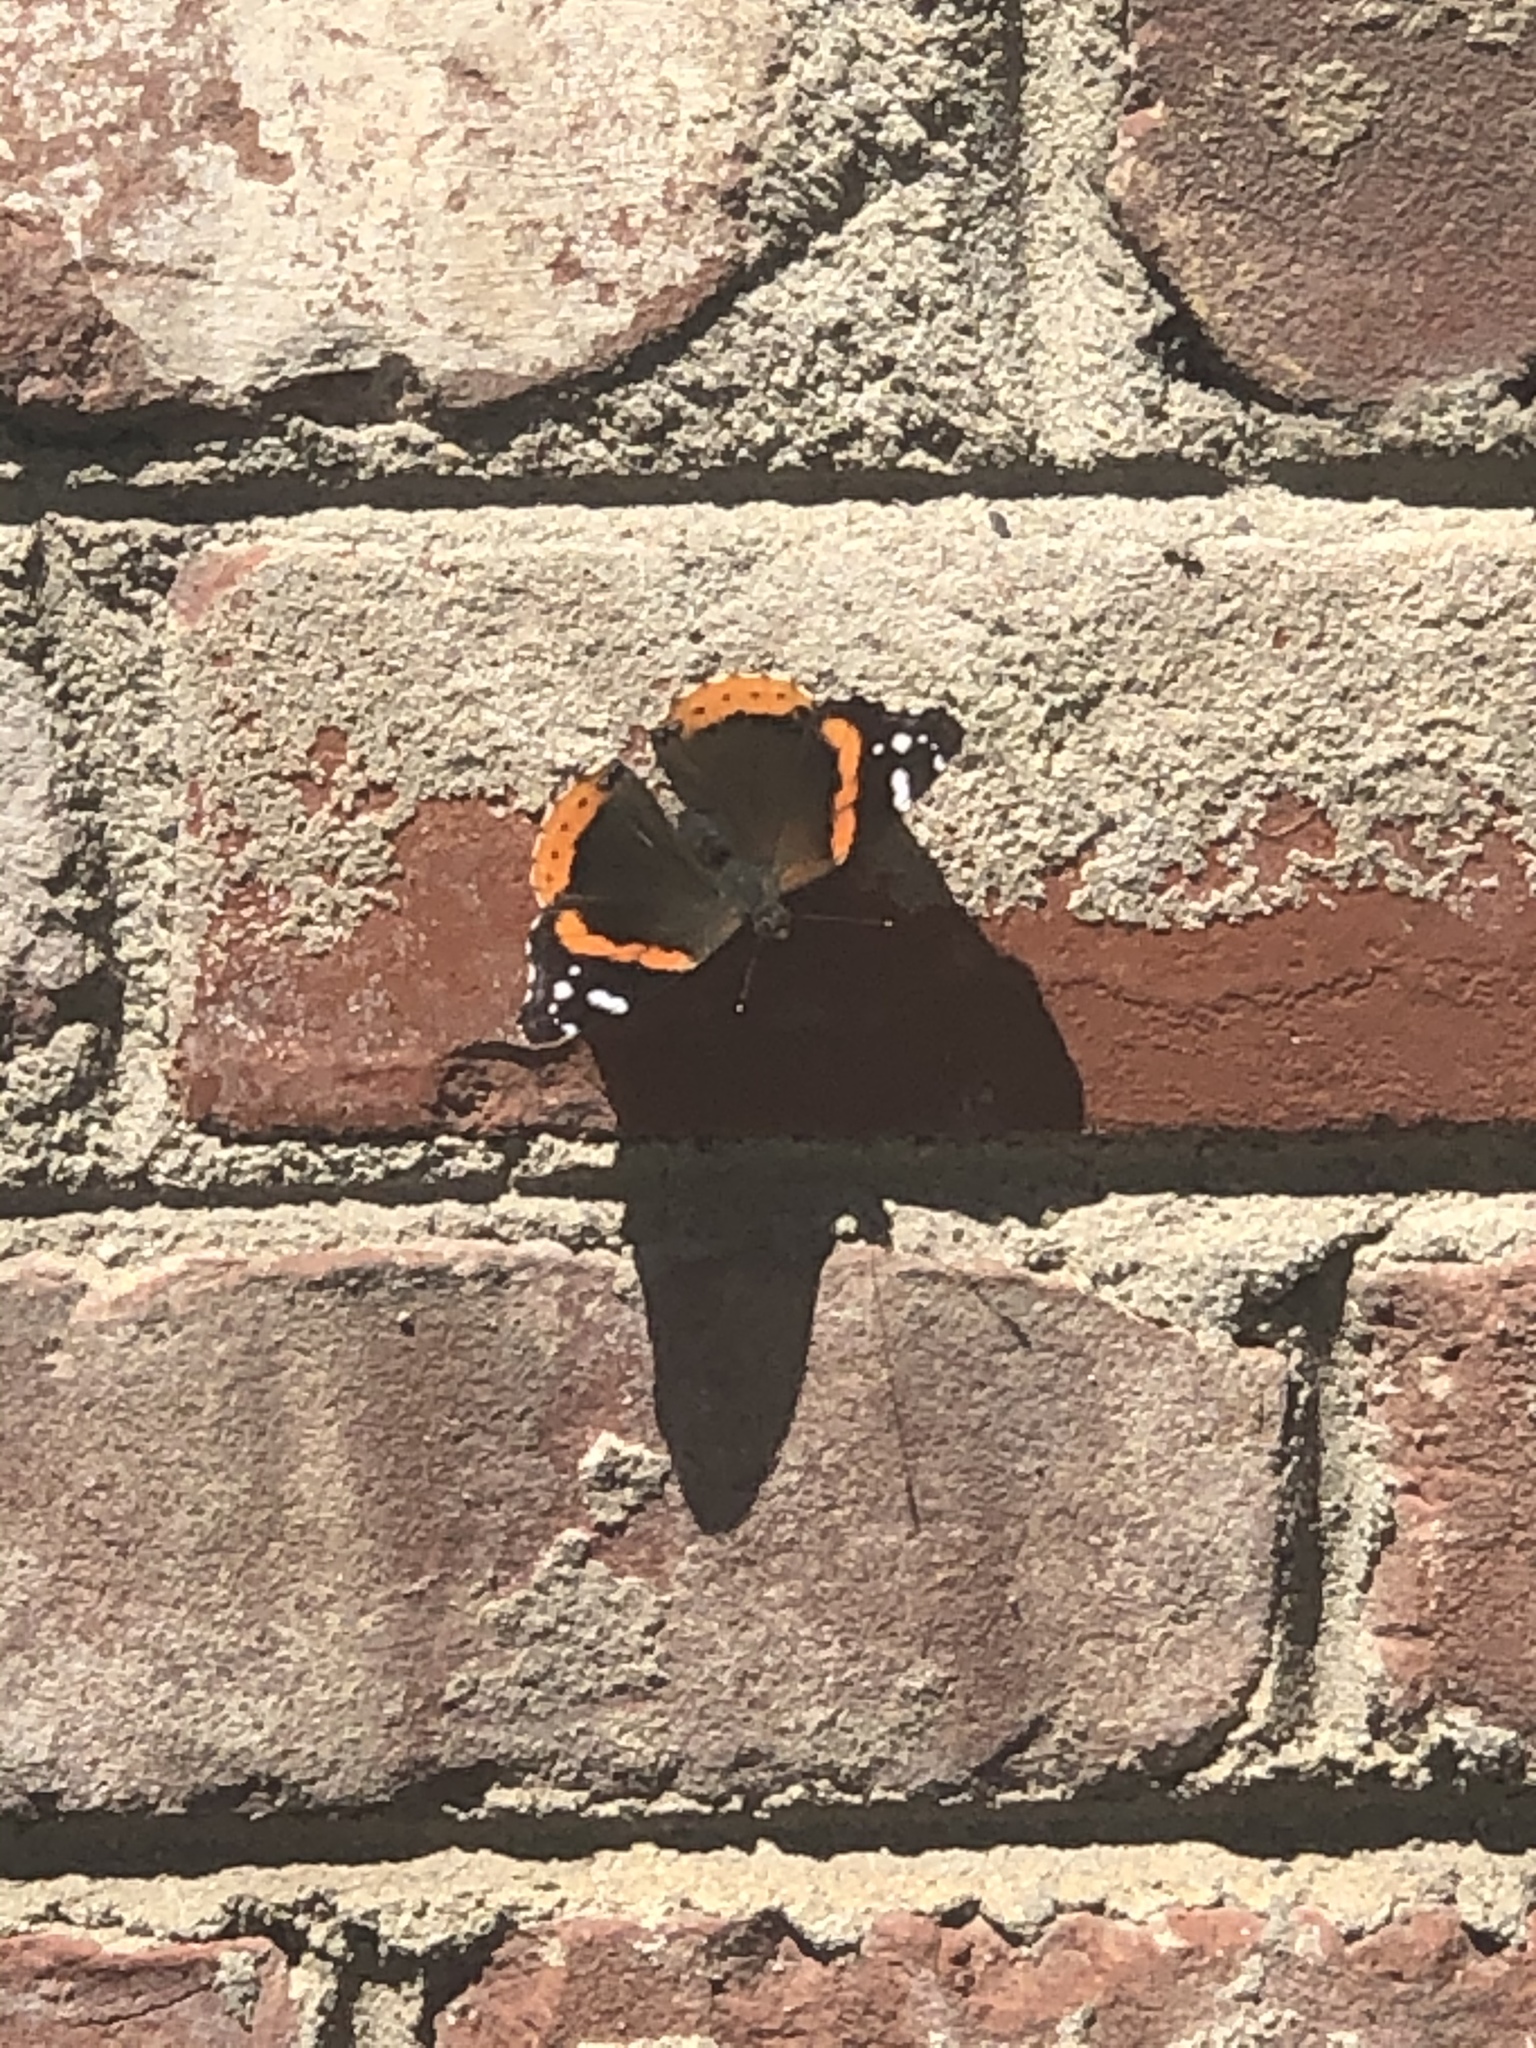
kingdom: Animalia
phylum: Arthropoda
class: Insecta
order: Lepidoptera
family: Nymphalidae
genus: Vanessa
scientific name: Vanessa atalanta
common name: Red admiral
